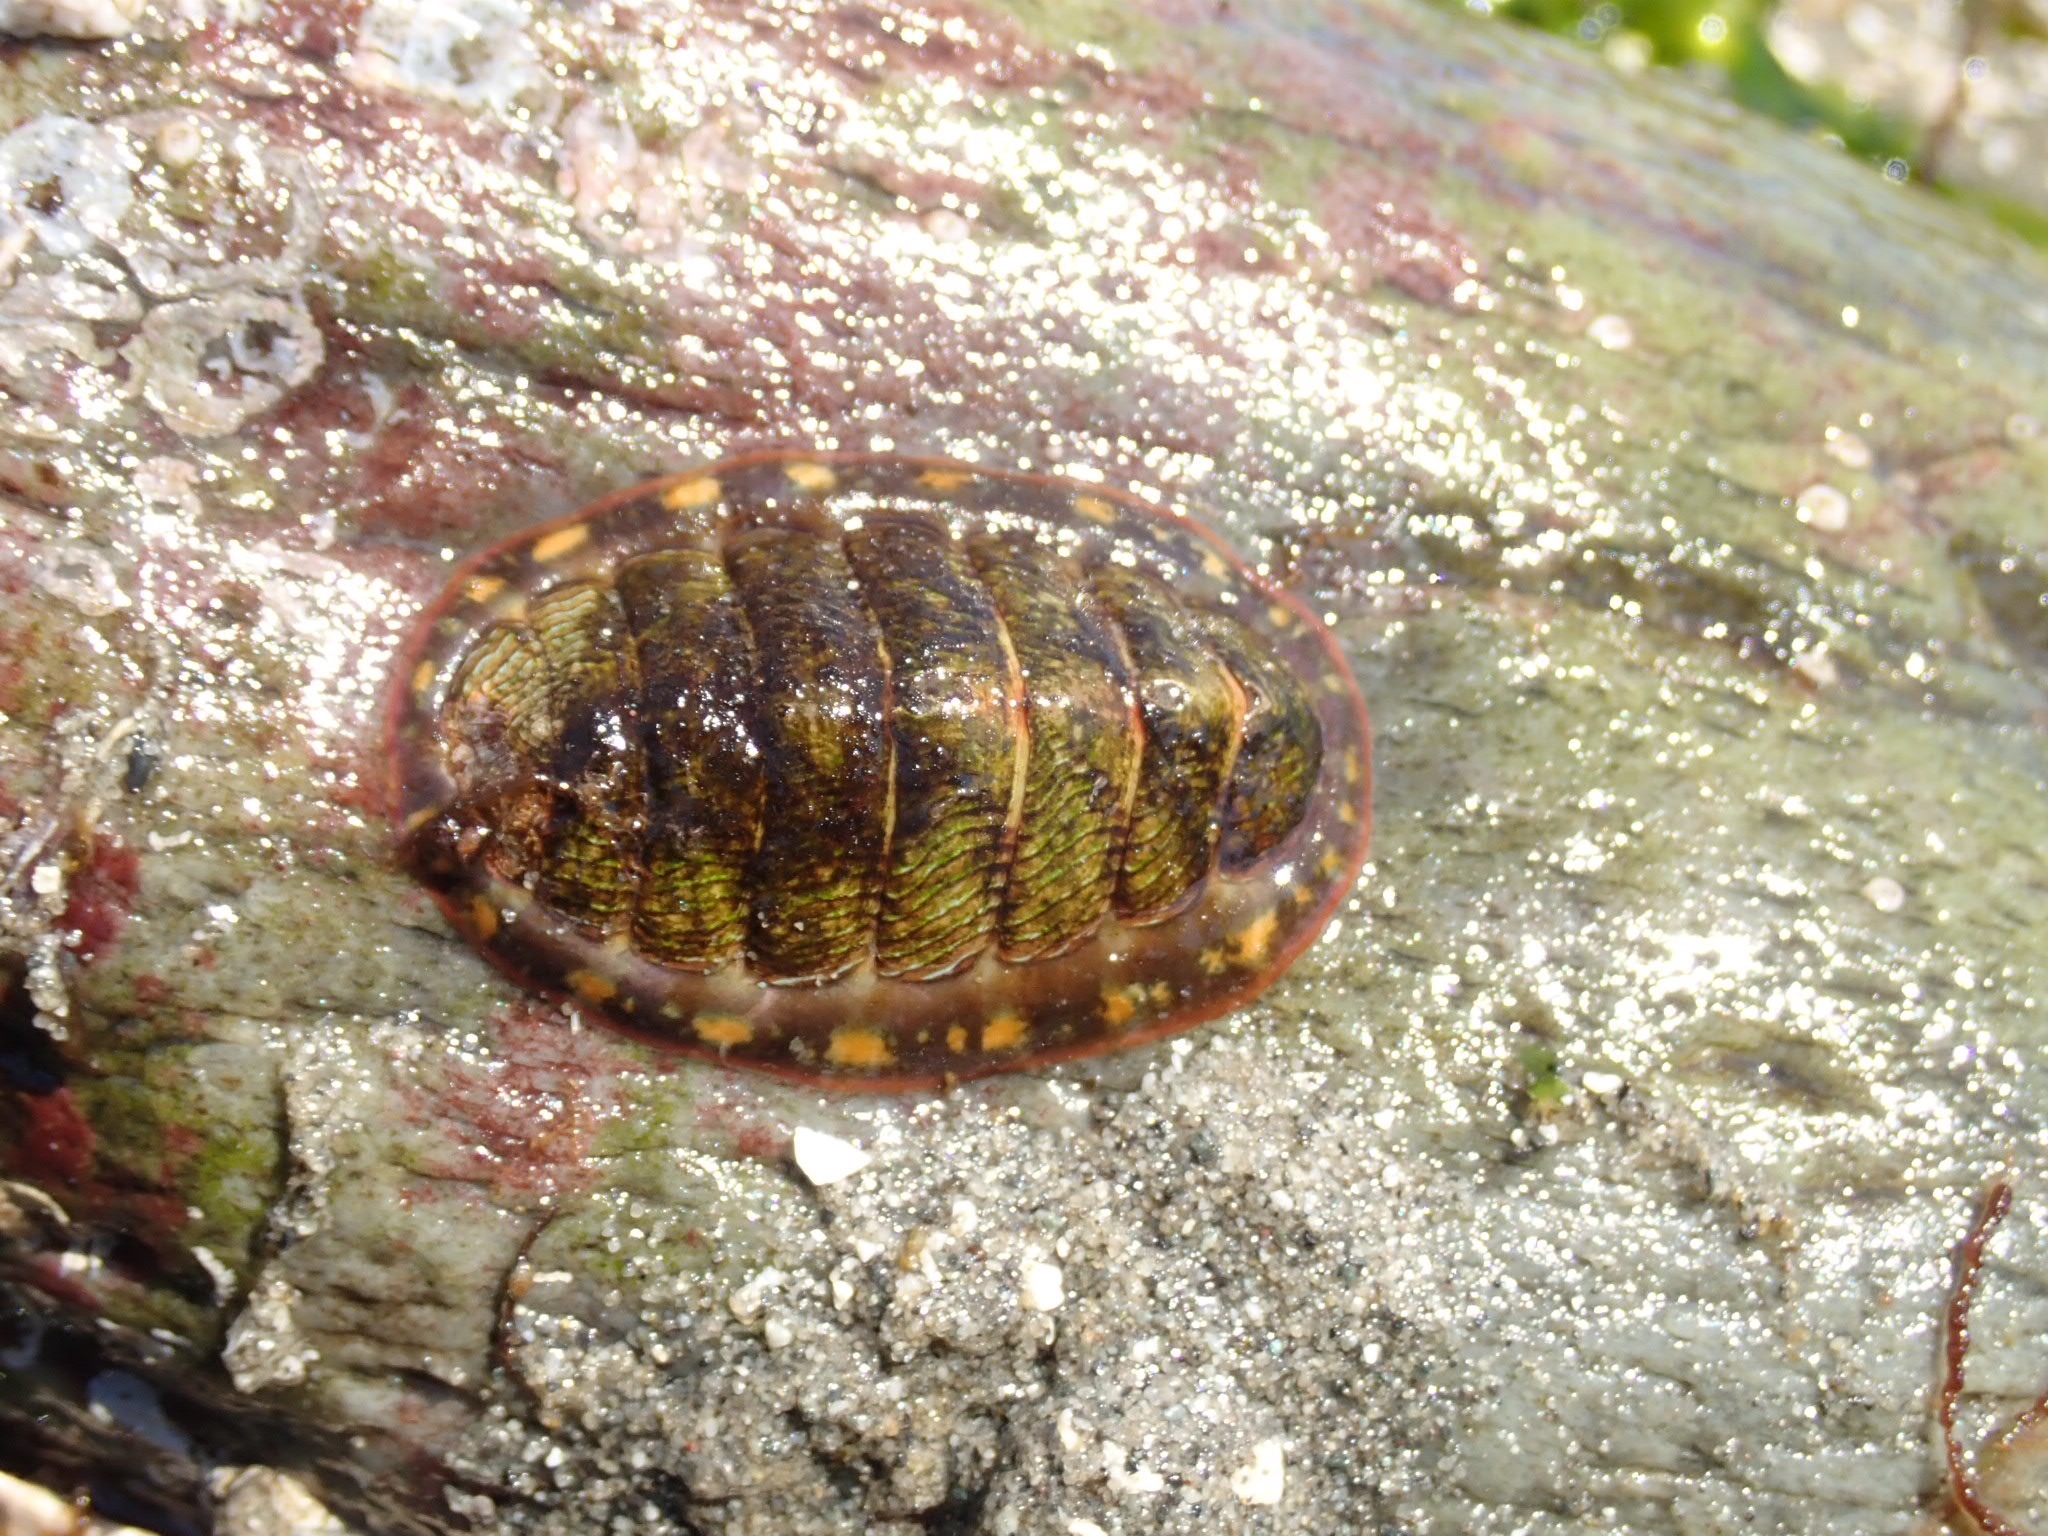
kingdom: Animalia
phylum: Mollusca
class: Polyplacophora
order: Chitonida
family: Tonicellidae
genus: Tonicella
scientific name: Tonicella lineata
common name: Lined chiton
